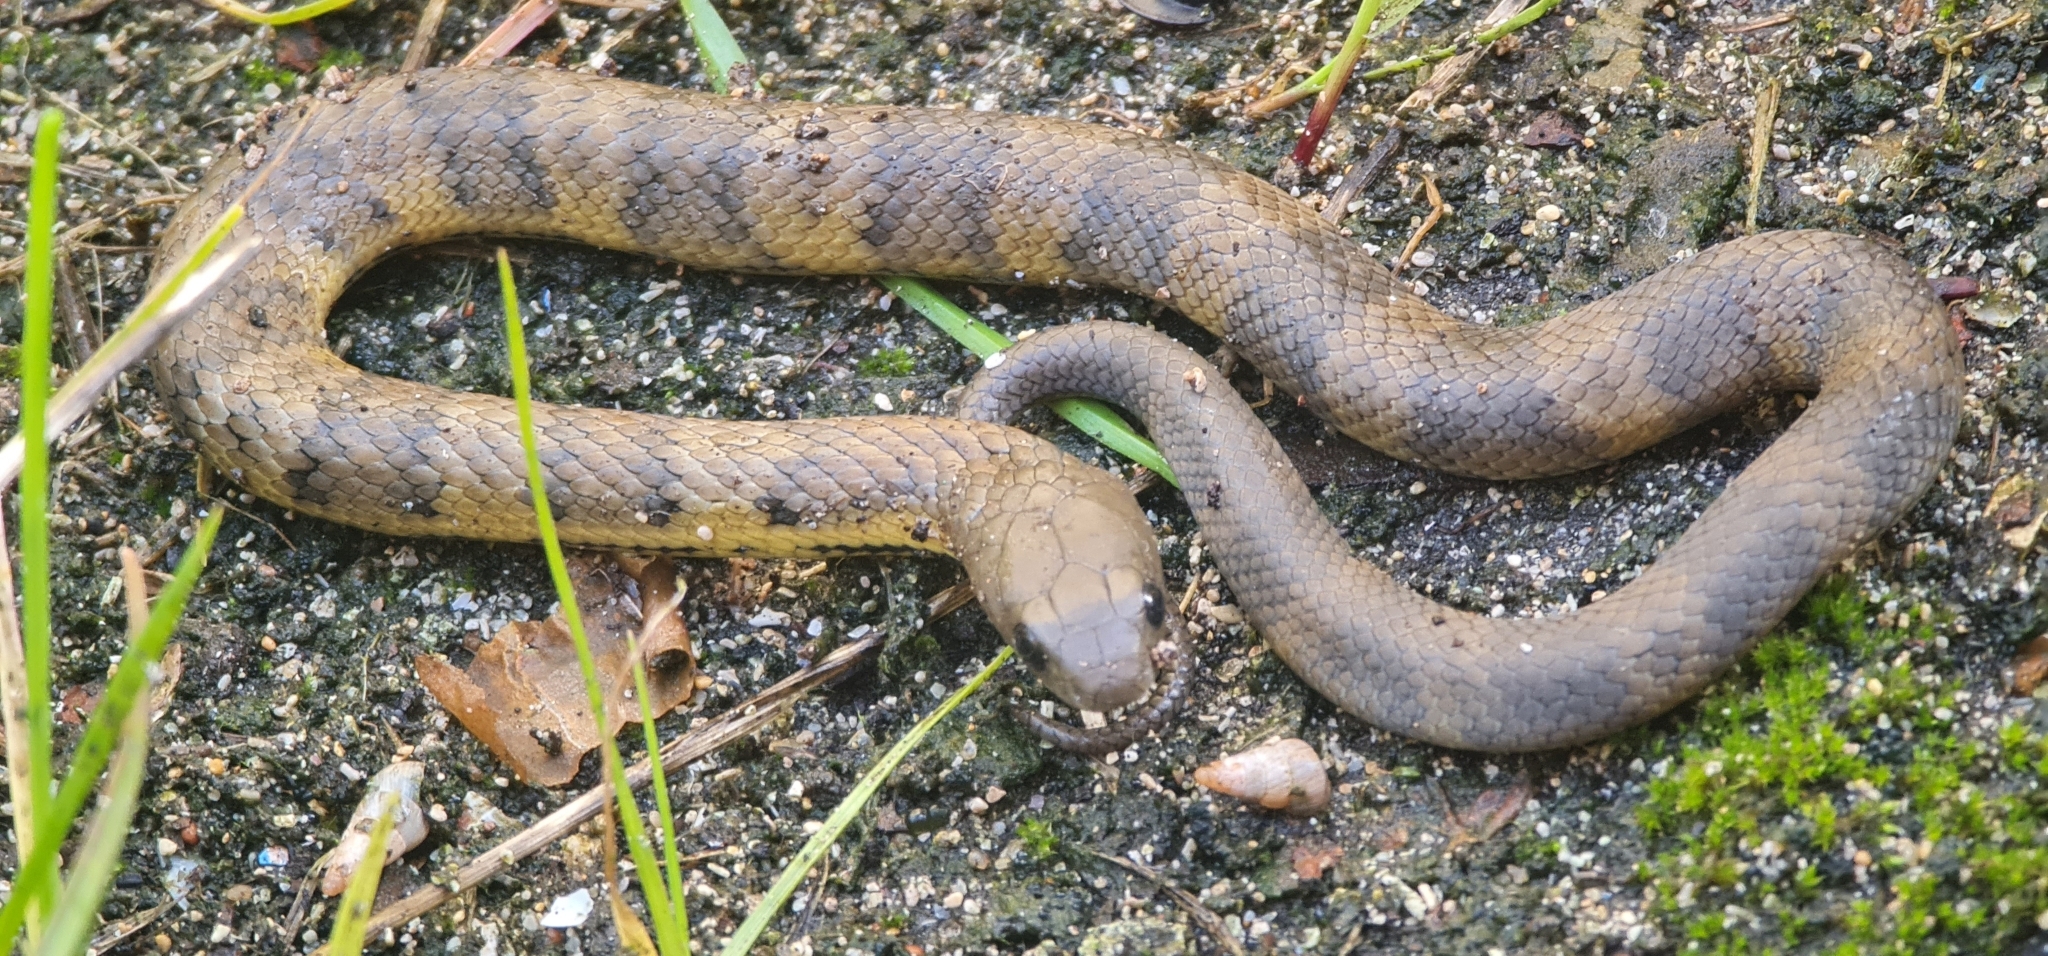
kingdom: Animalia
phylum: Chordata
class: Squamata
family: Elapidae
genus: Notechis
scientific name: Notechis scutatus
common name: Mainland tiger snake
